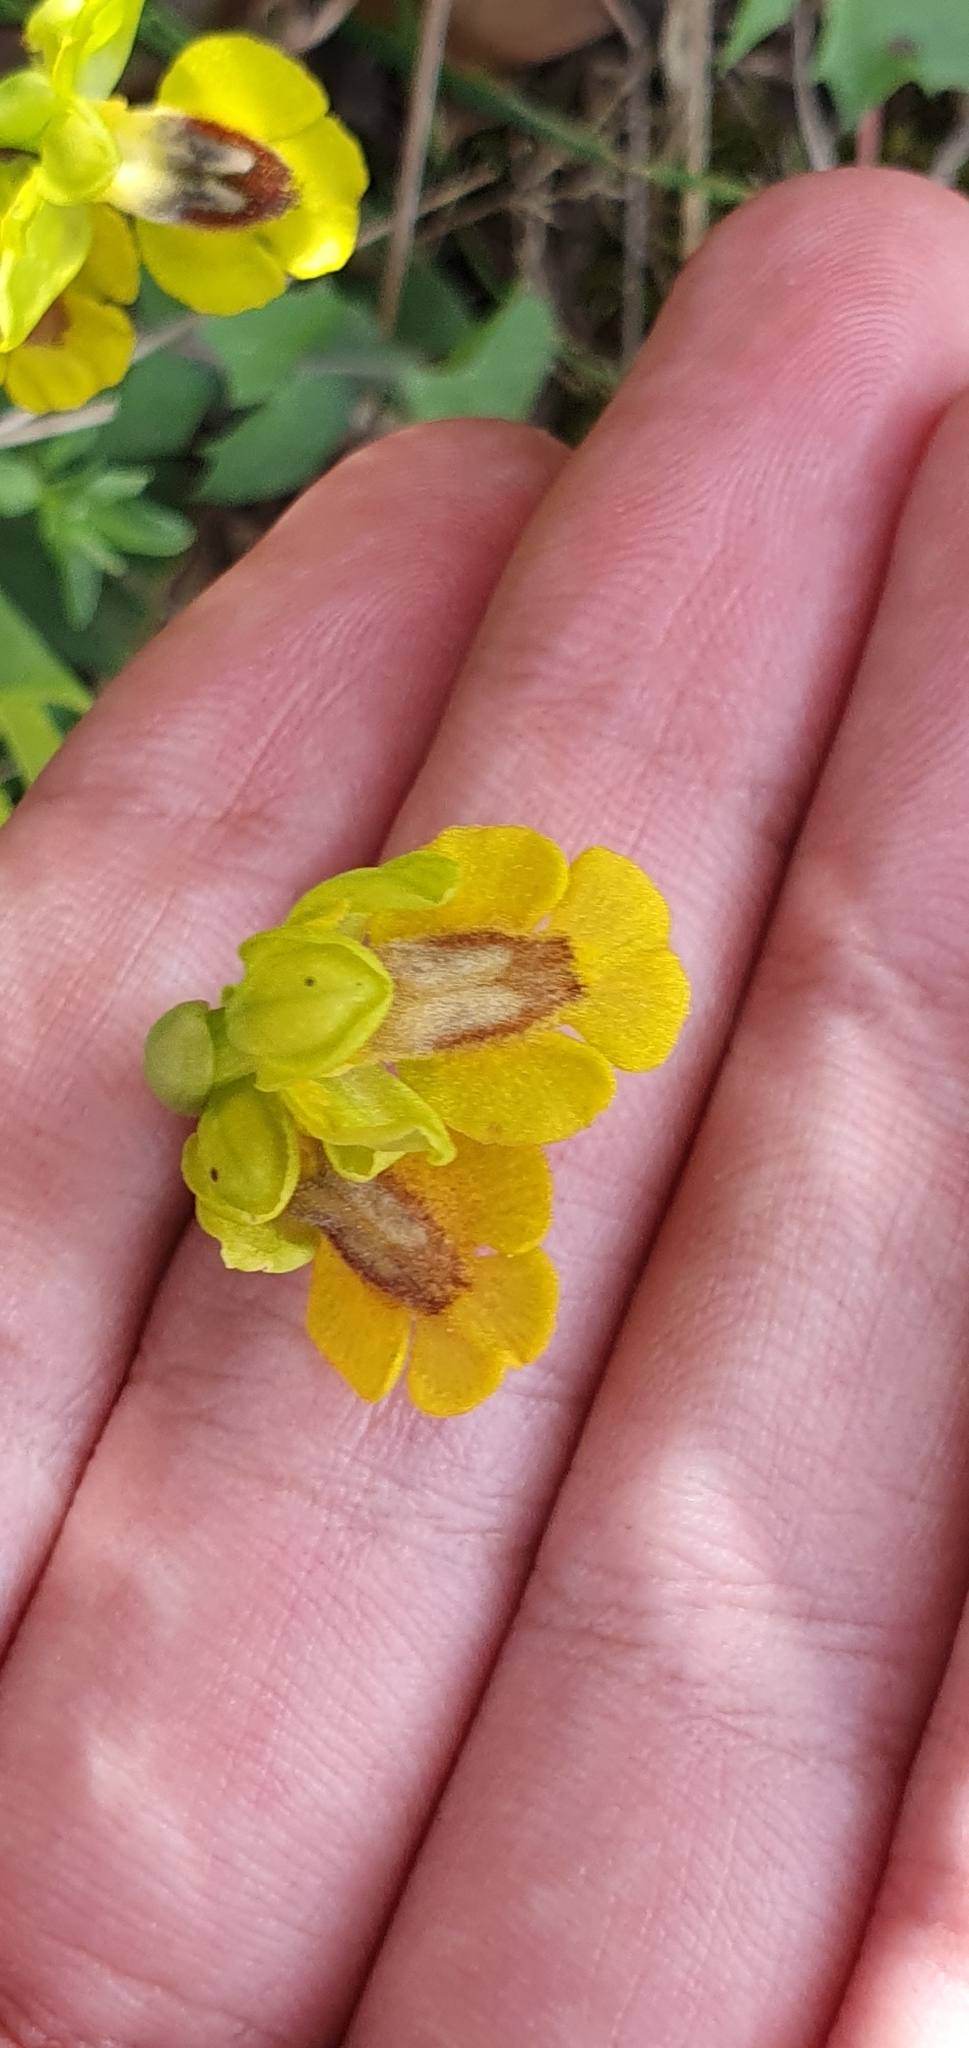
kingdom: Plantae
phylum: Tracheophyta
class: Liliopsida
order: Asparagales
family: Orchidaceae
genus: Ophrys
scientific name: Ophrys lutea
